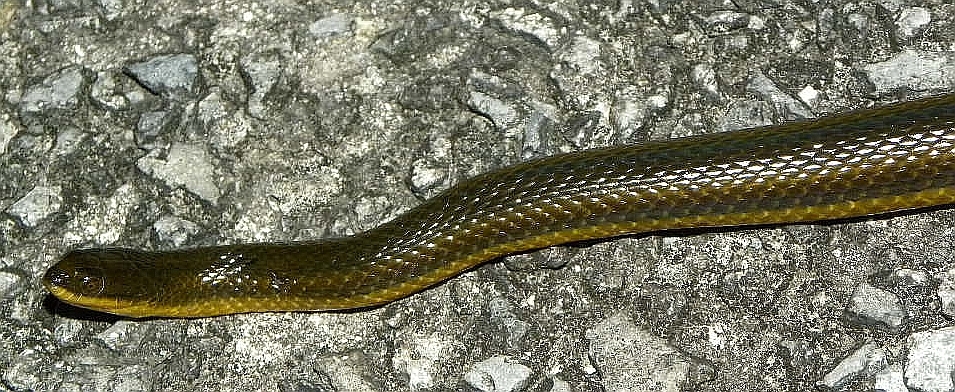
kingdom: Animalia
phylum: Chordata
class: Squamata
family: Colubridae
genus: Liodytes
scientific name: Liodytes alleni
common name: Striped crayfish snake
